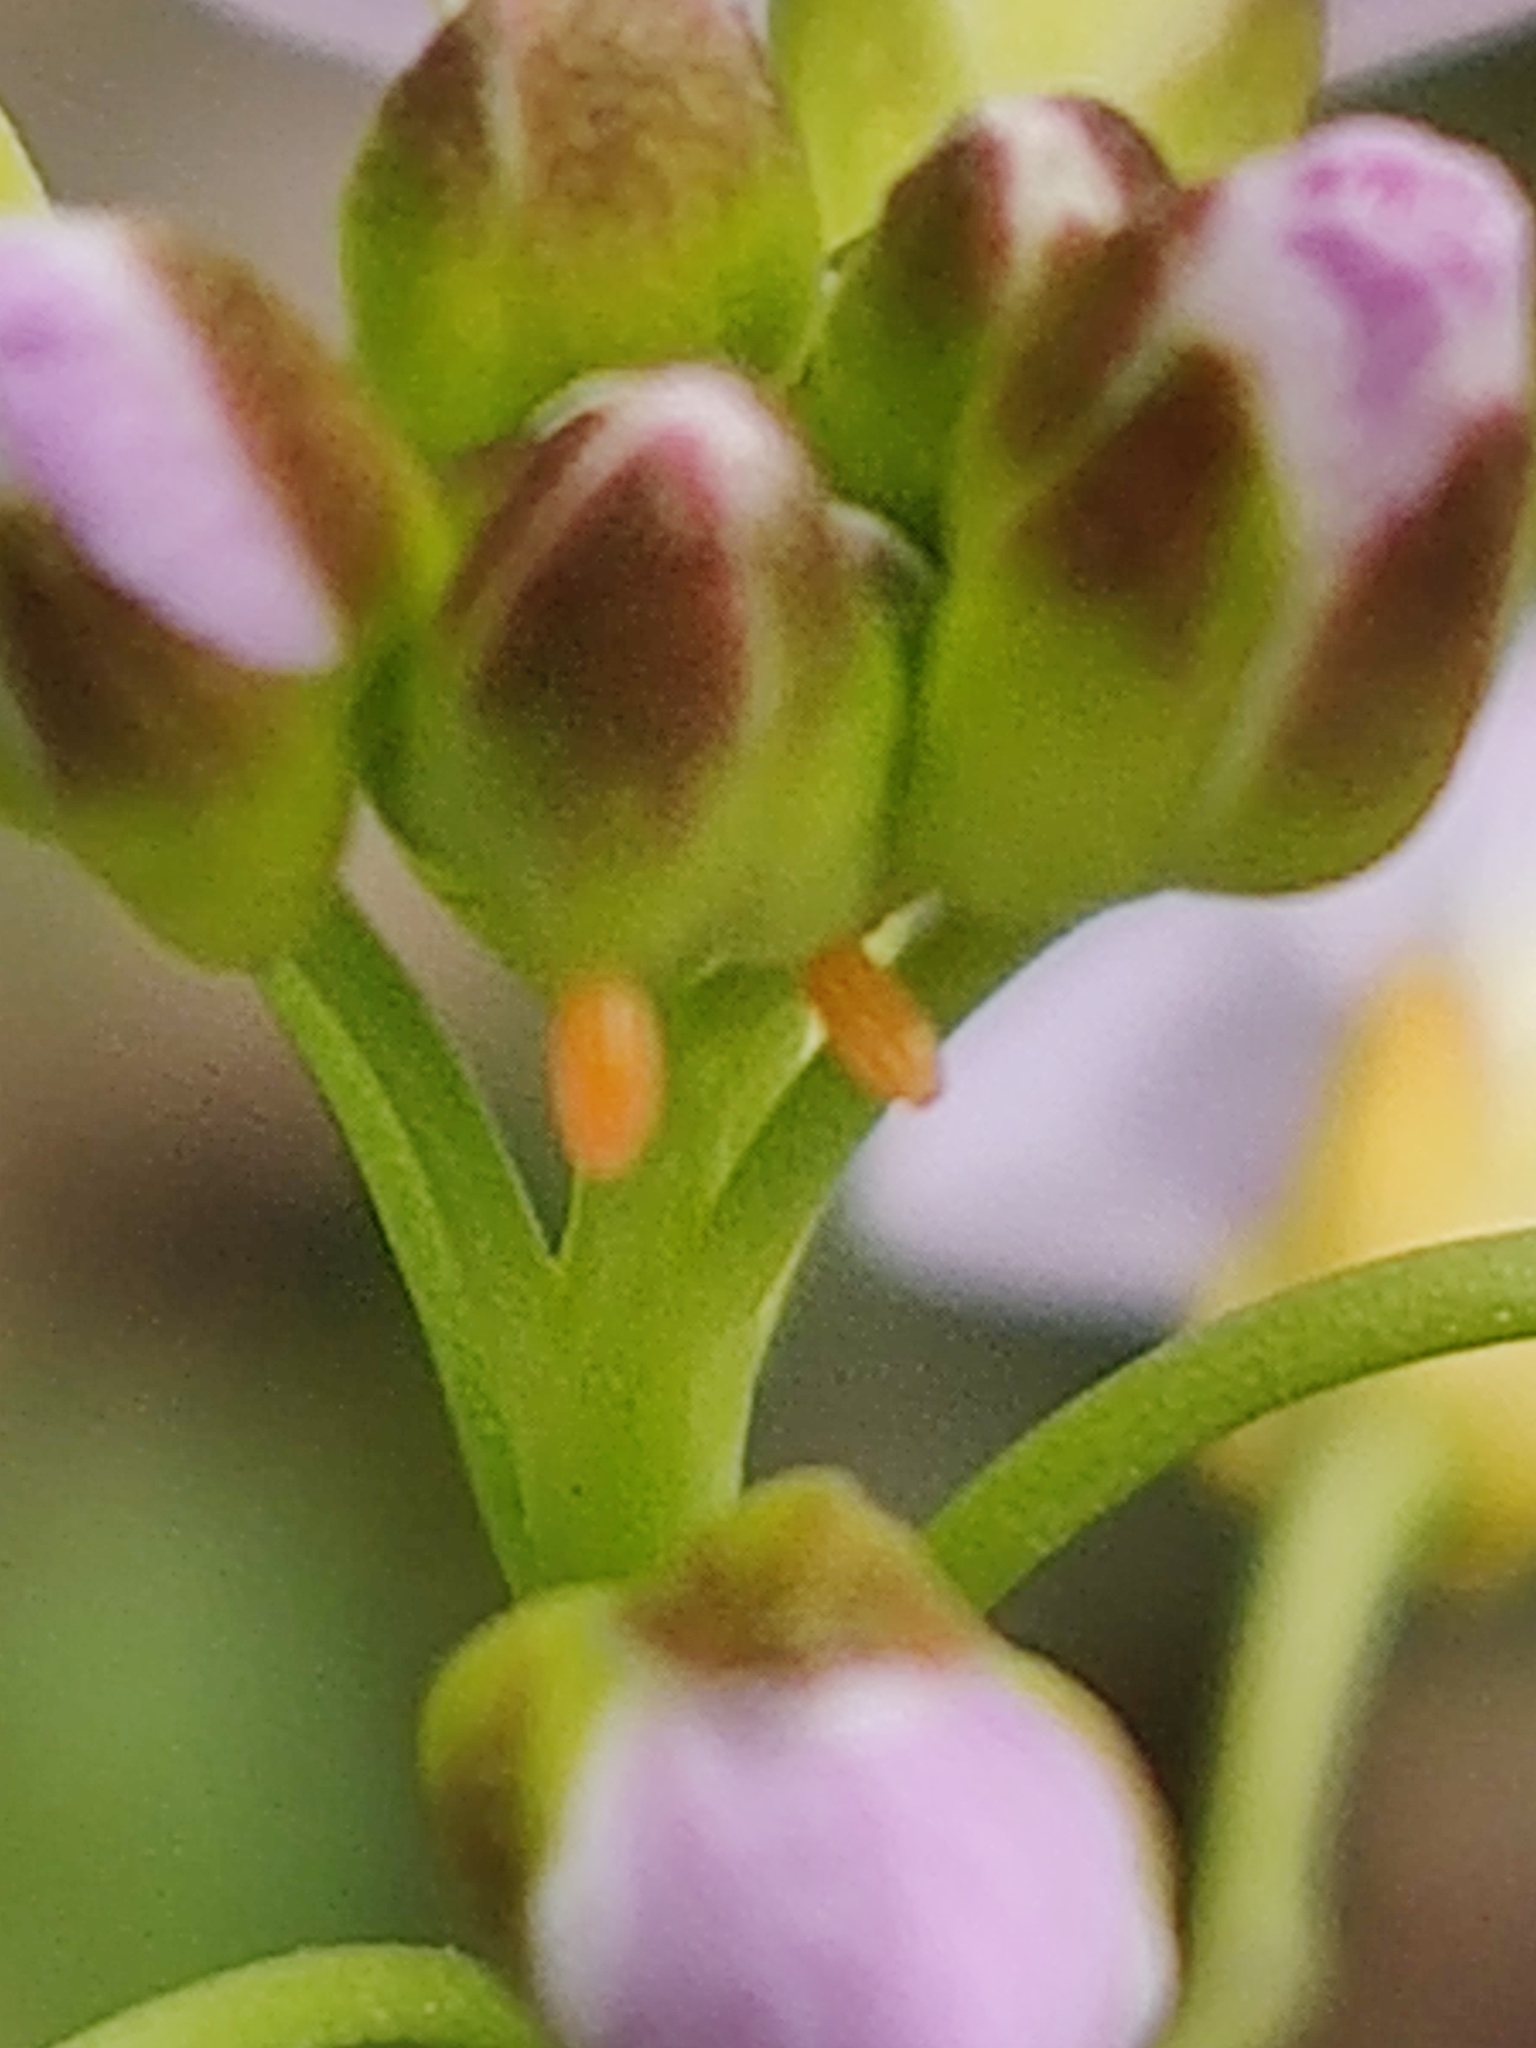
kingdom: Animalia
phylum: Arthropoda
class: Insecta
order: Lepidoptera
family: Pieridae
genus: Anthocharis
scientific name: Anthocharis cardamines
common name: Orange-tip
